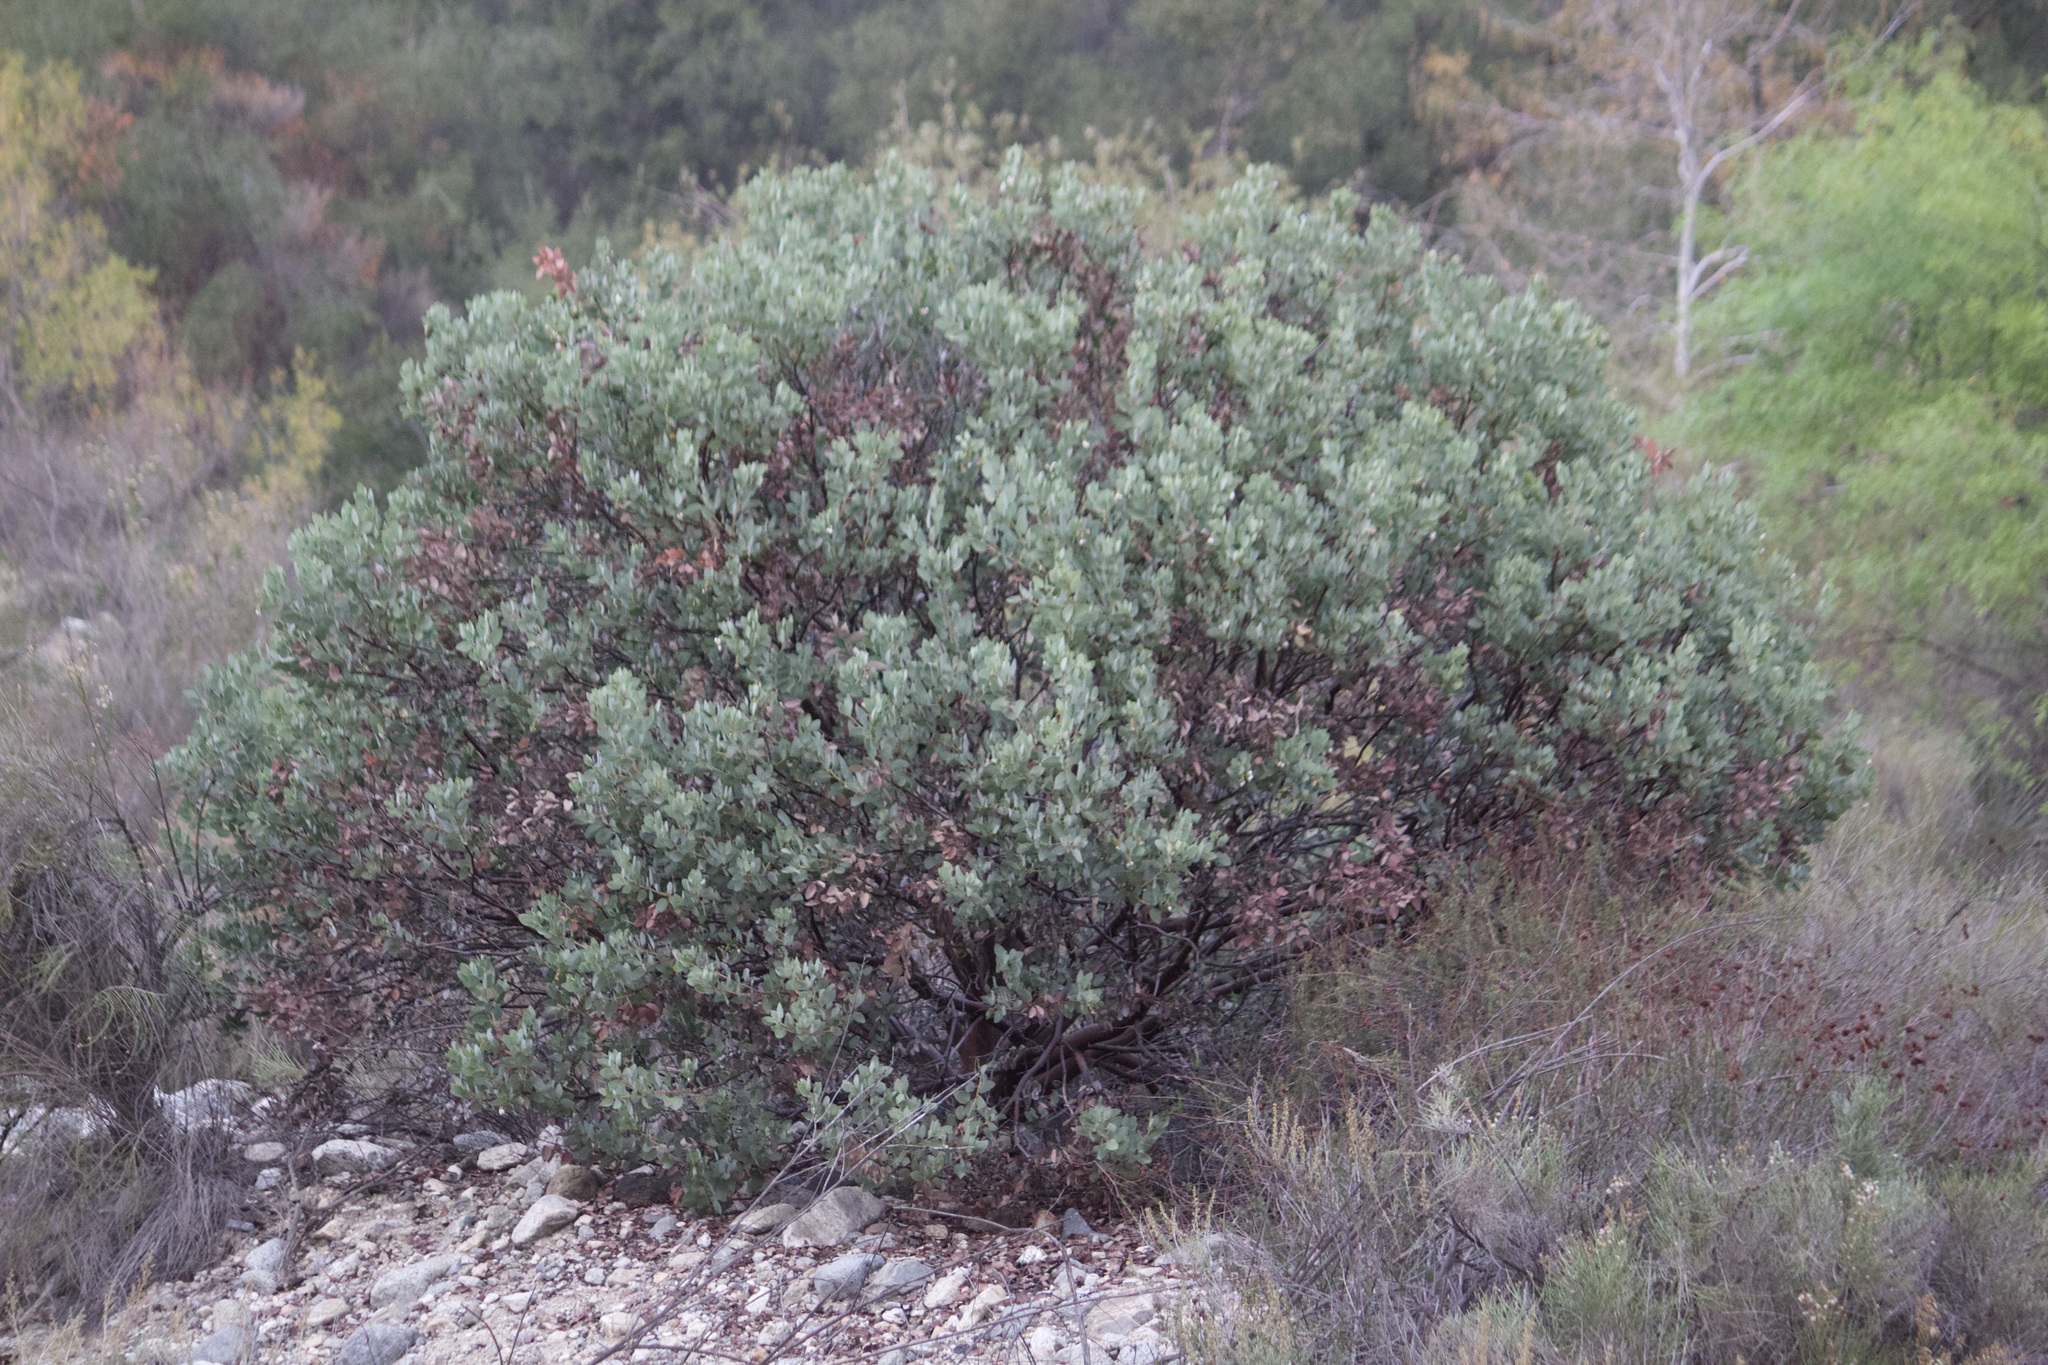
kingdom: Plantae
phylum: Tracheophyta
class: Magnoliopsida
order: Ericales
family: Ericaceae
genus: Arctostaphylos
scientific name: Arctostaphylos glauca
